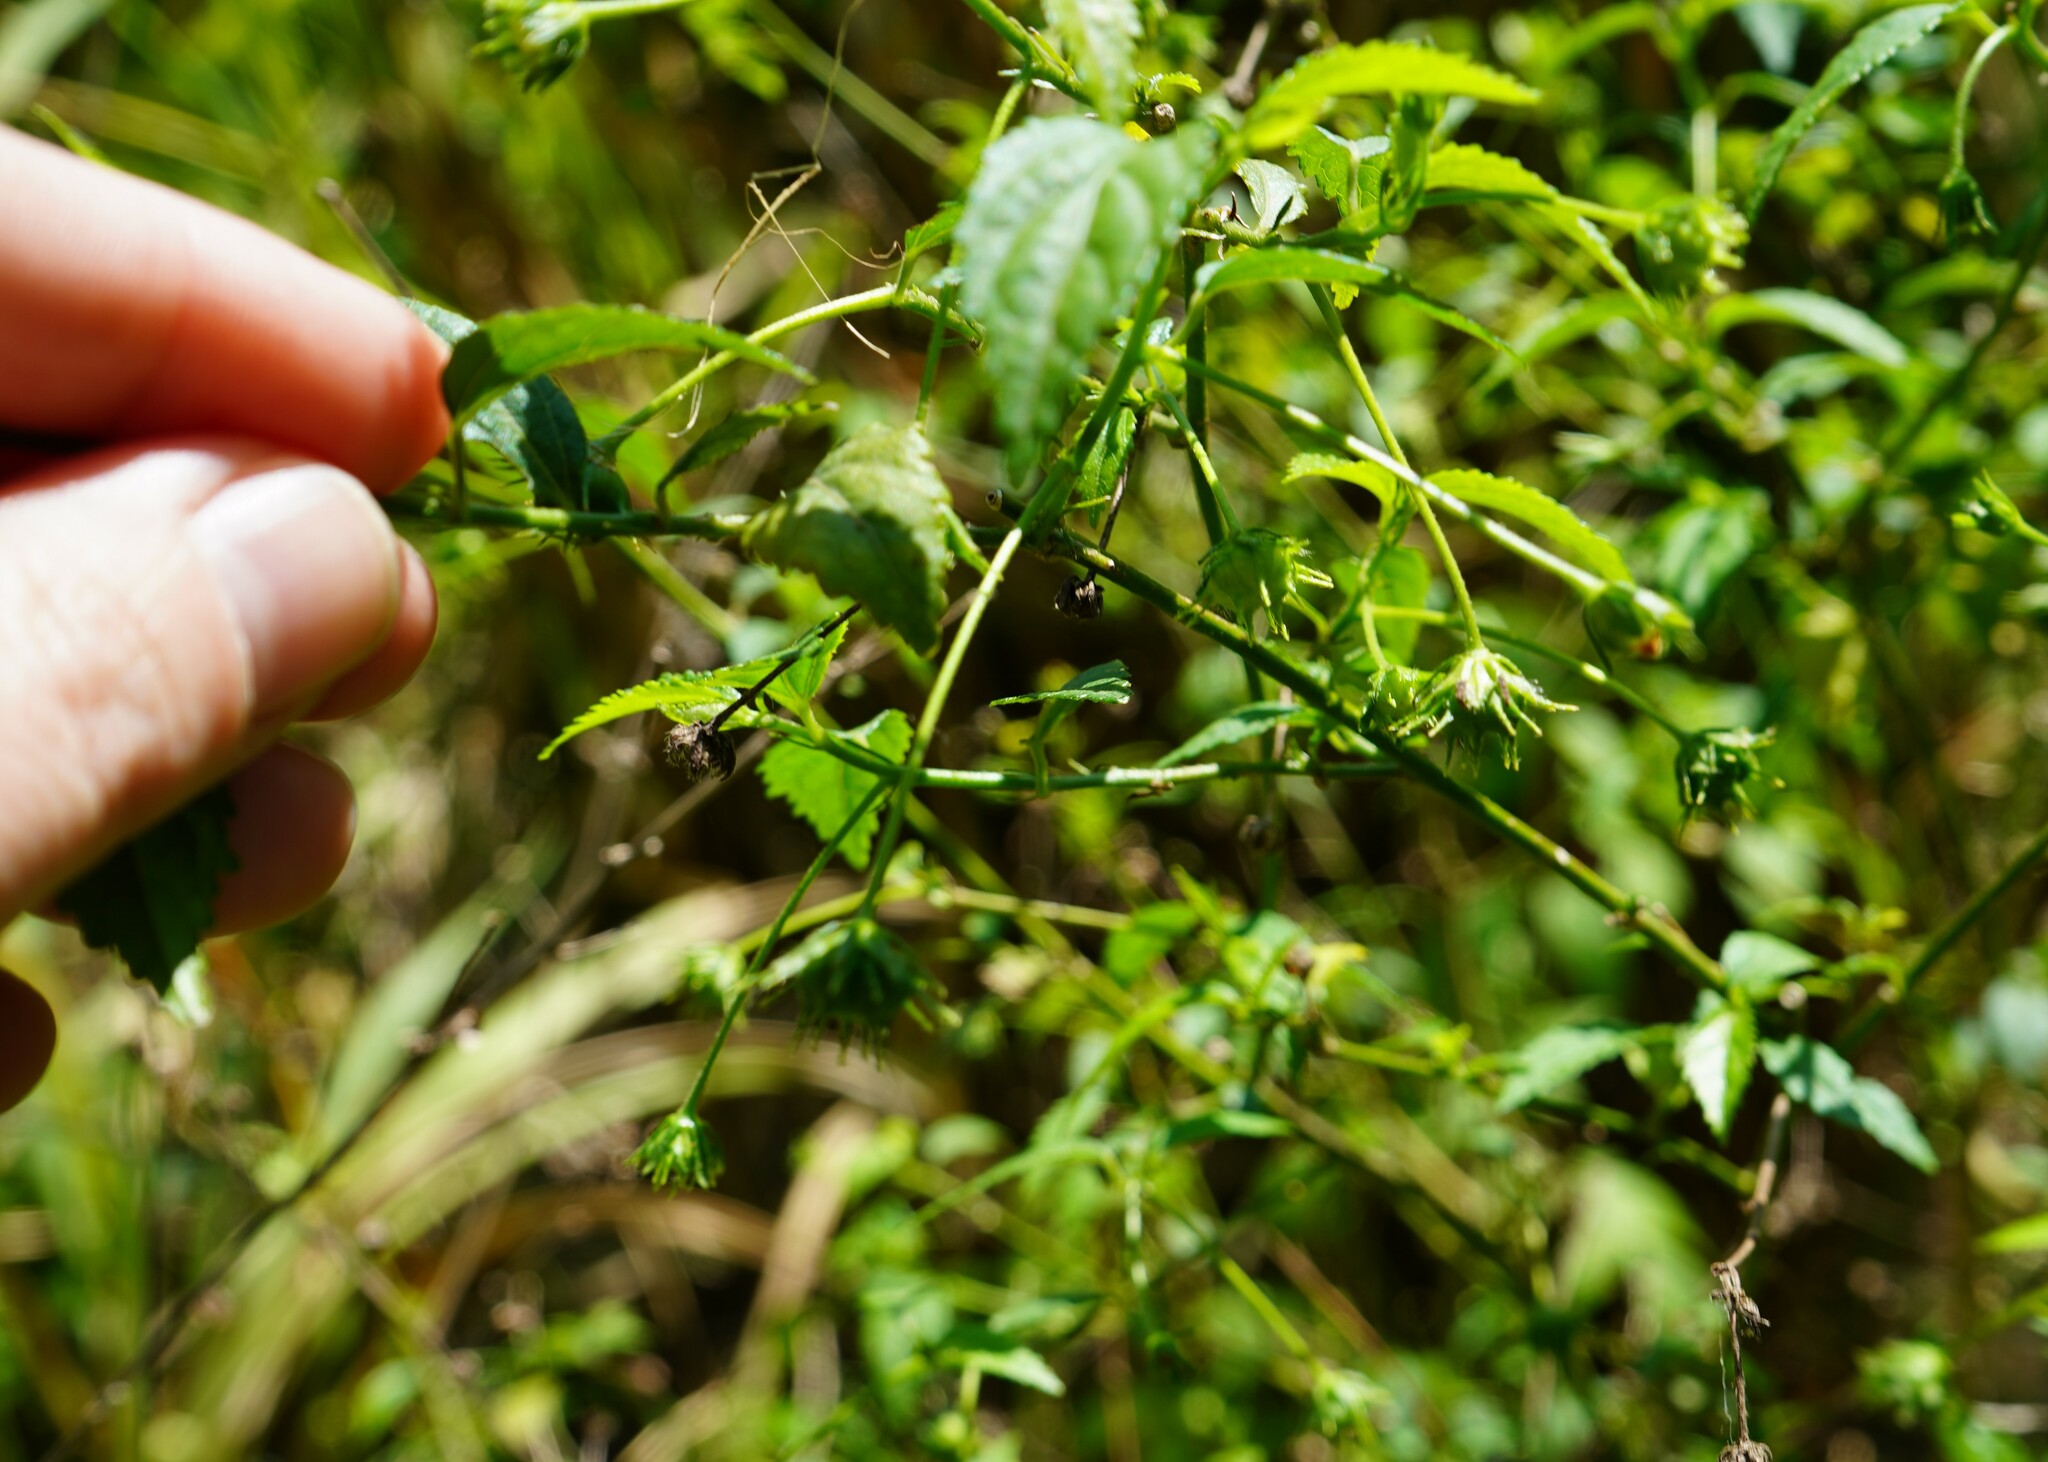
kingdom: Plantae
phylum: Tracheophyta
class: Magnoliopsida
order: Malvales
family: Malvaceae
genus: Pavonia
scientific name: Pavonia sepium
